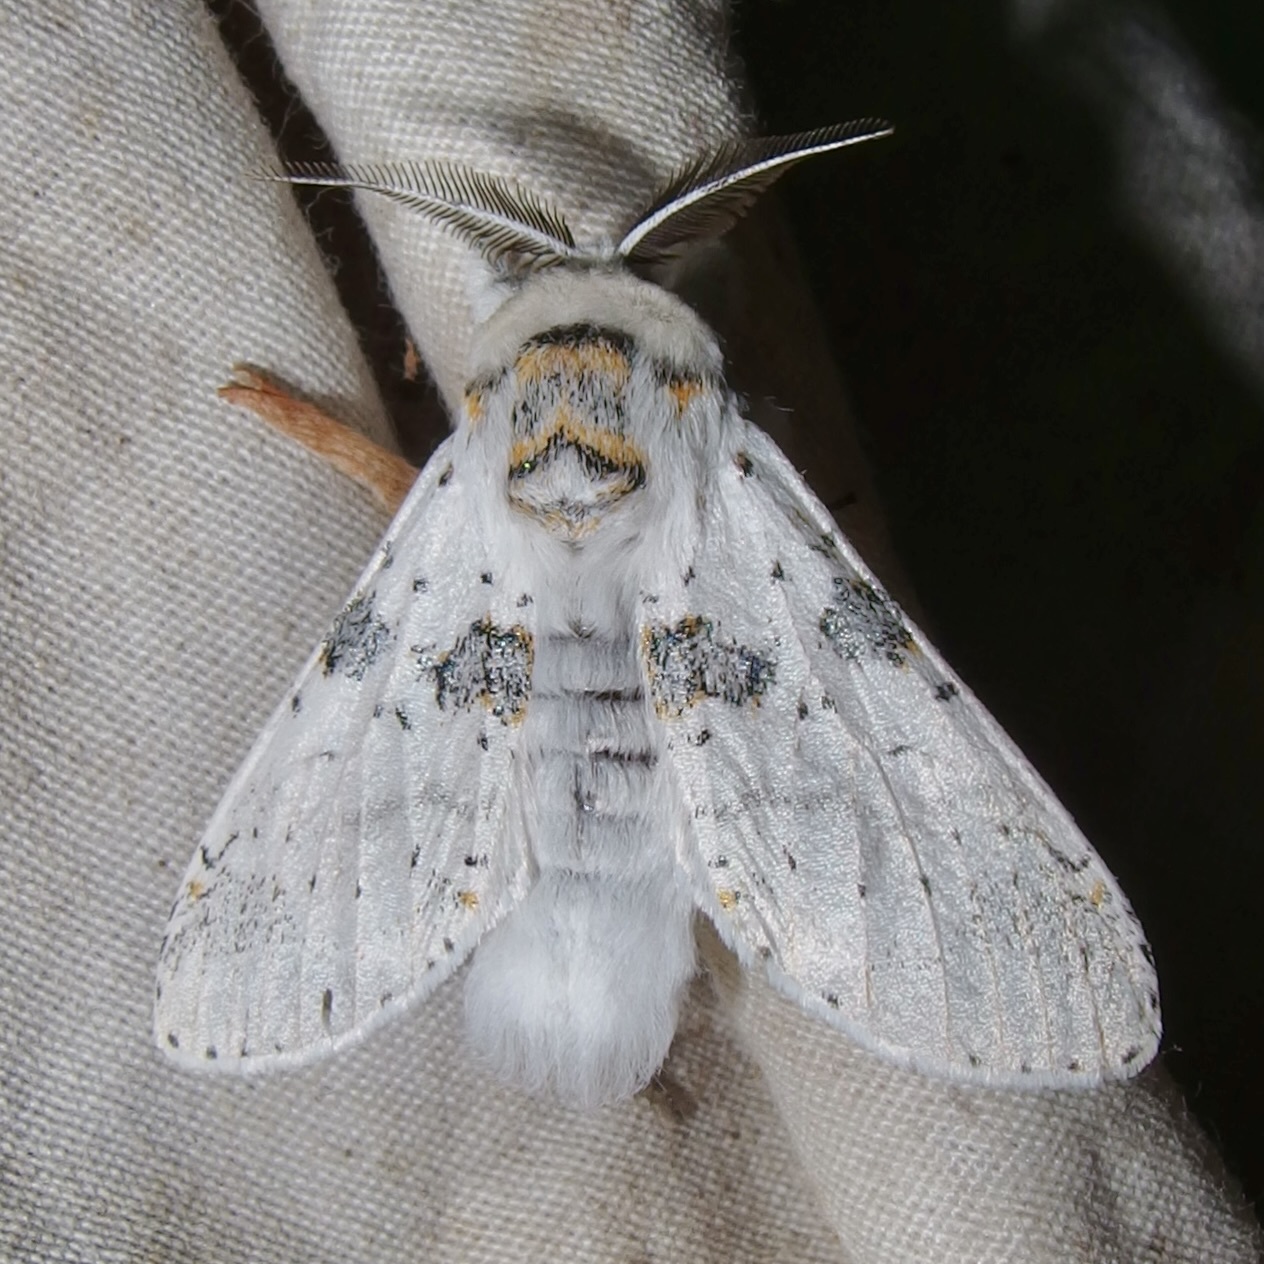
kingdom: Animalia
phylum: Arthropoda
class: Insecta
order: Lepidoptera
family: Notodontidae
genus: Furcula
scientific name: Furcula nivea
